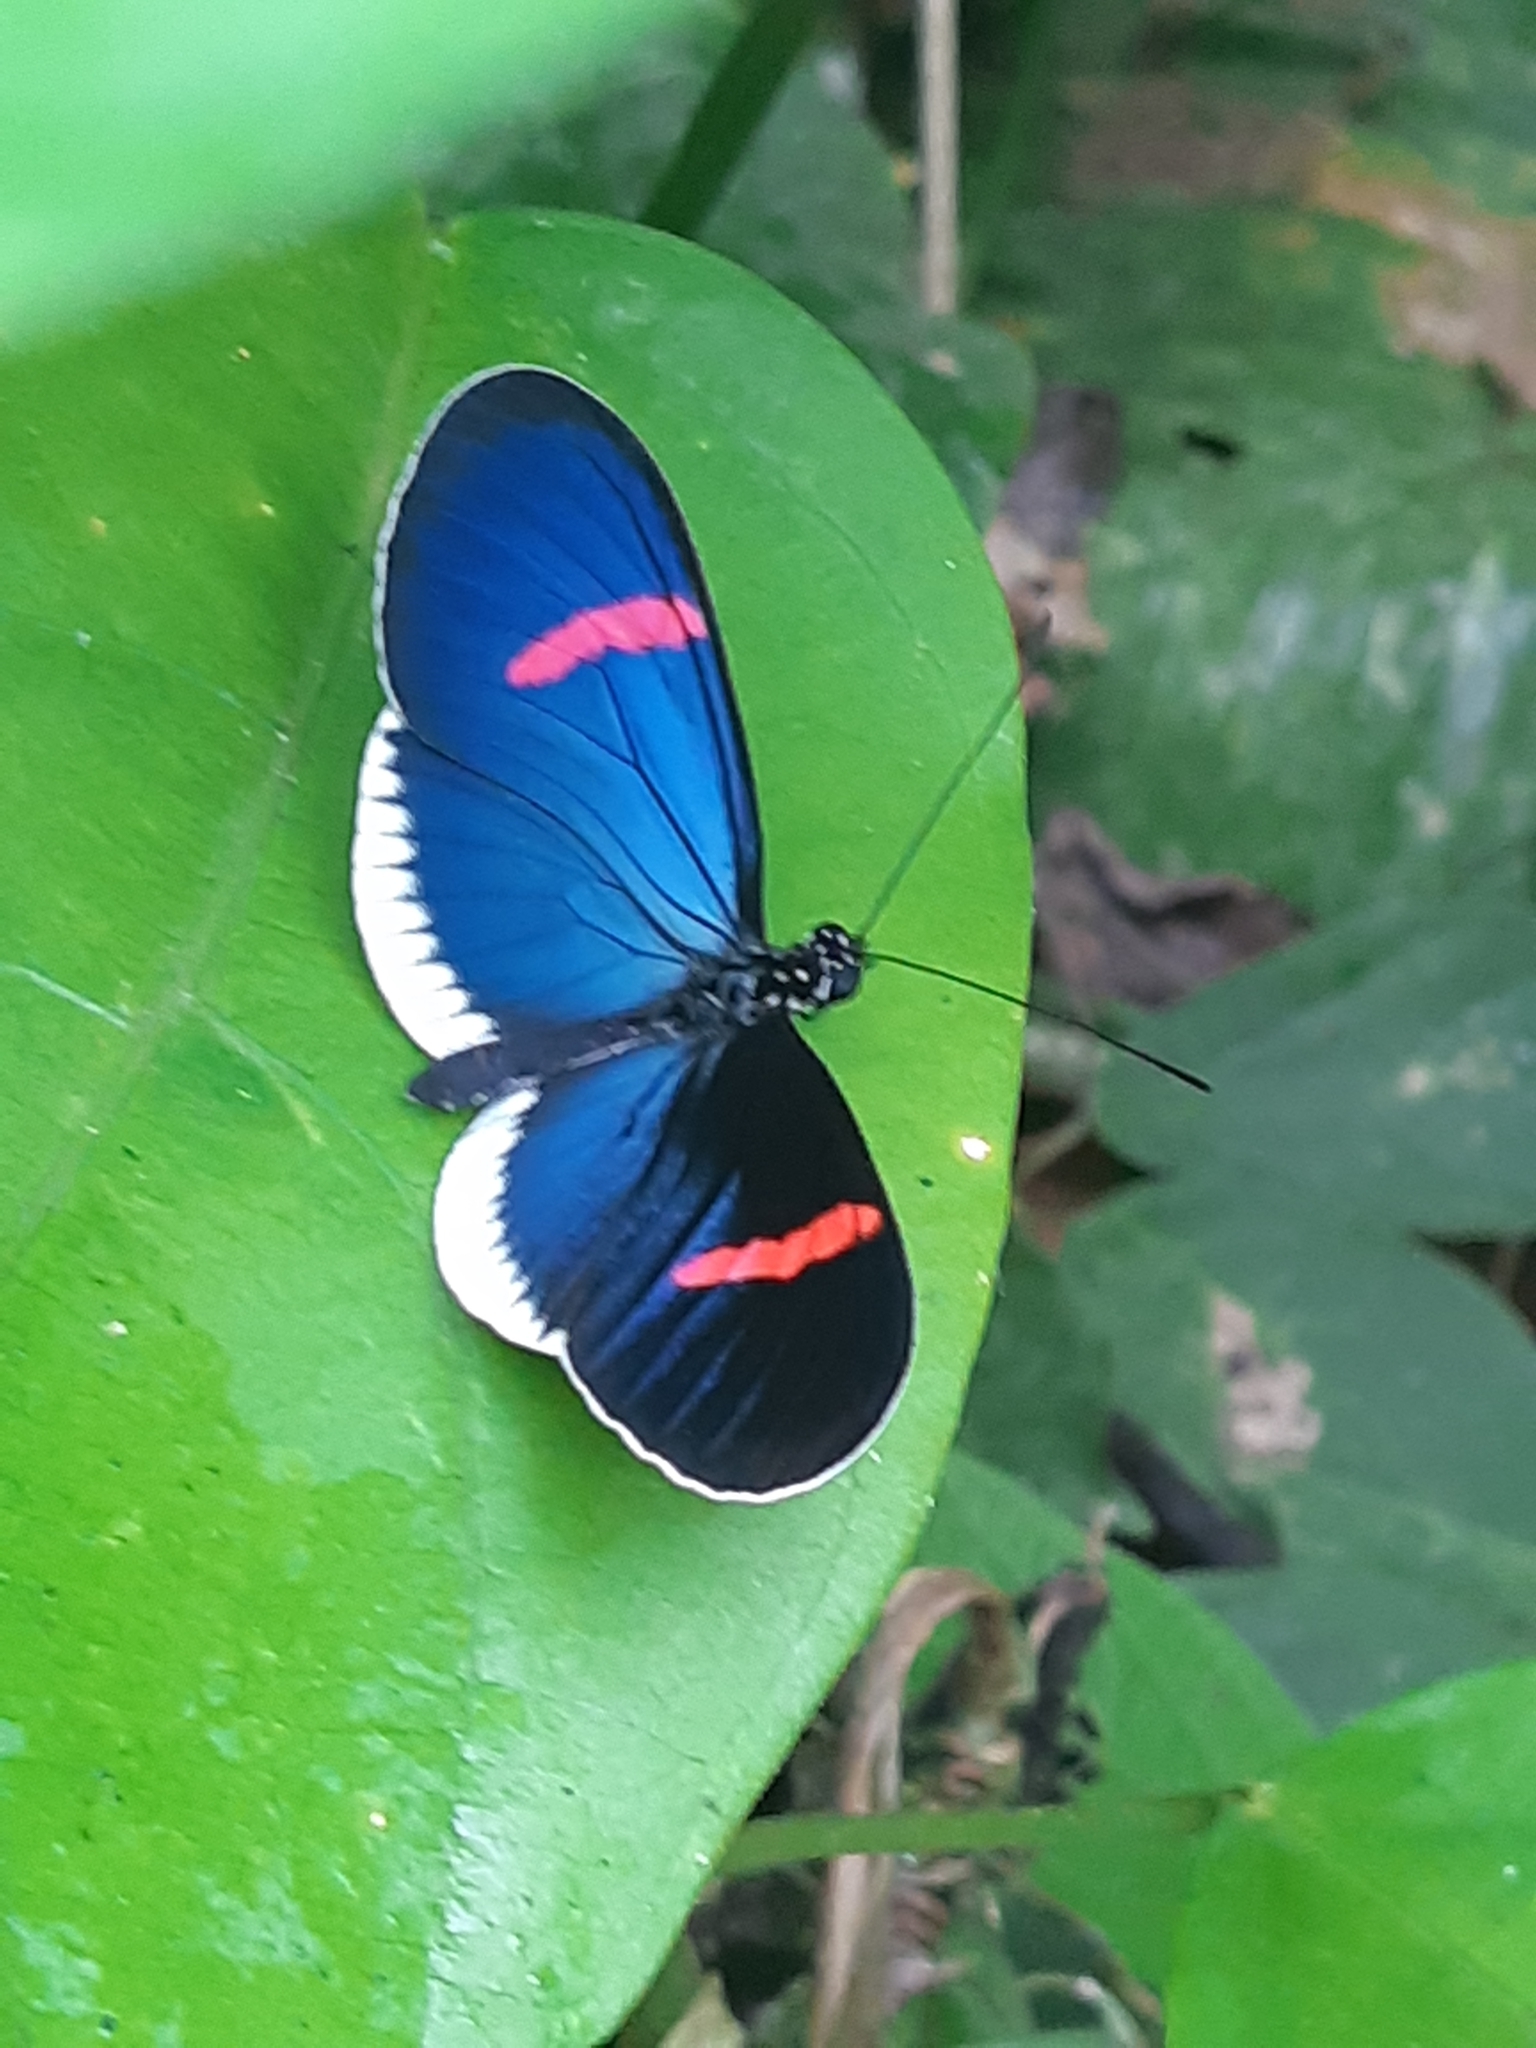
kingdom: Animalia
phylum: Arthropoda
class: Insecta
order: Lepidoptera
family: Nymphalidae
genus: Heliconius
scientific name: Heliconius erato
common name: Common patch longwing
